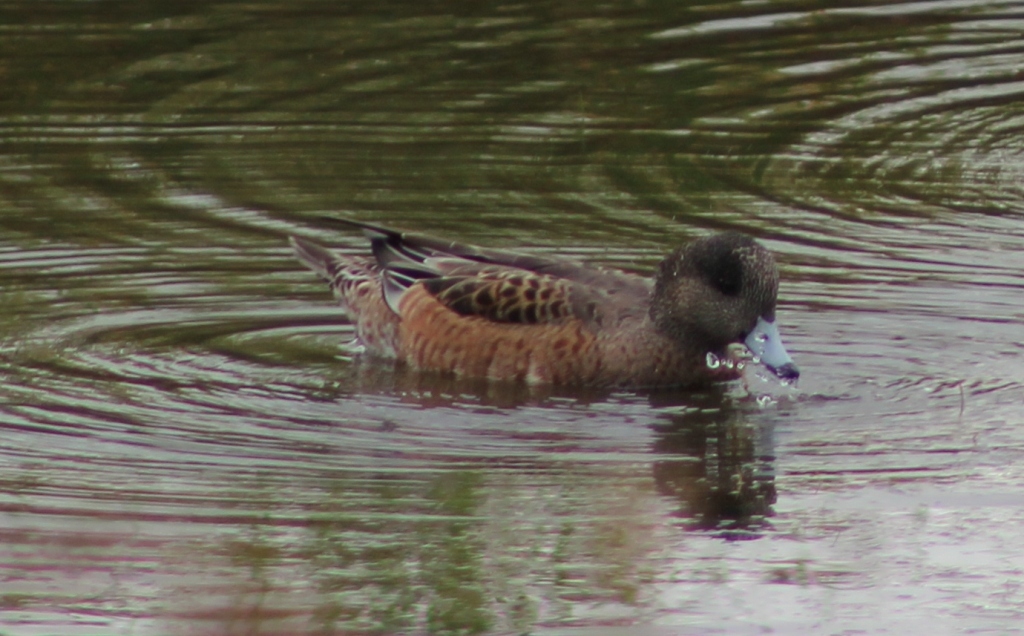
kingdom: Animalia
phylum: Chordata
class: Aves
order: Anseriformes
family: Anatidae
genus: Mareca
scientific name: Mareca americana
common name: American wigeon
